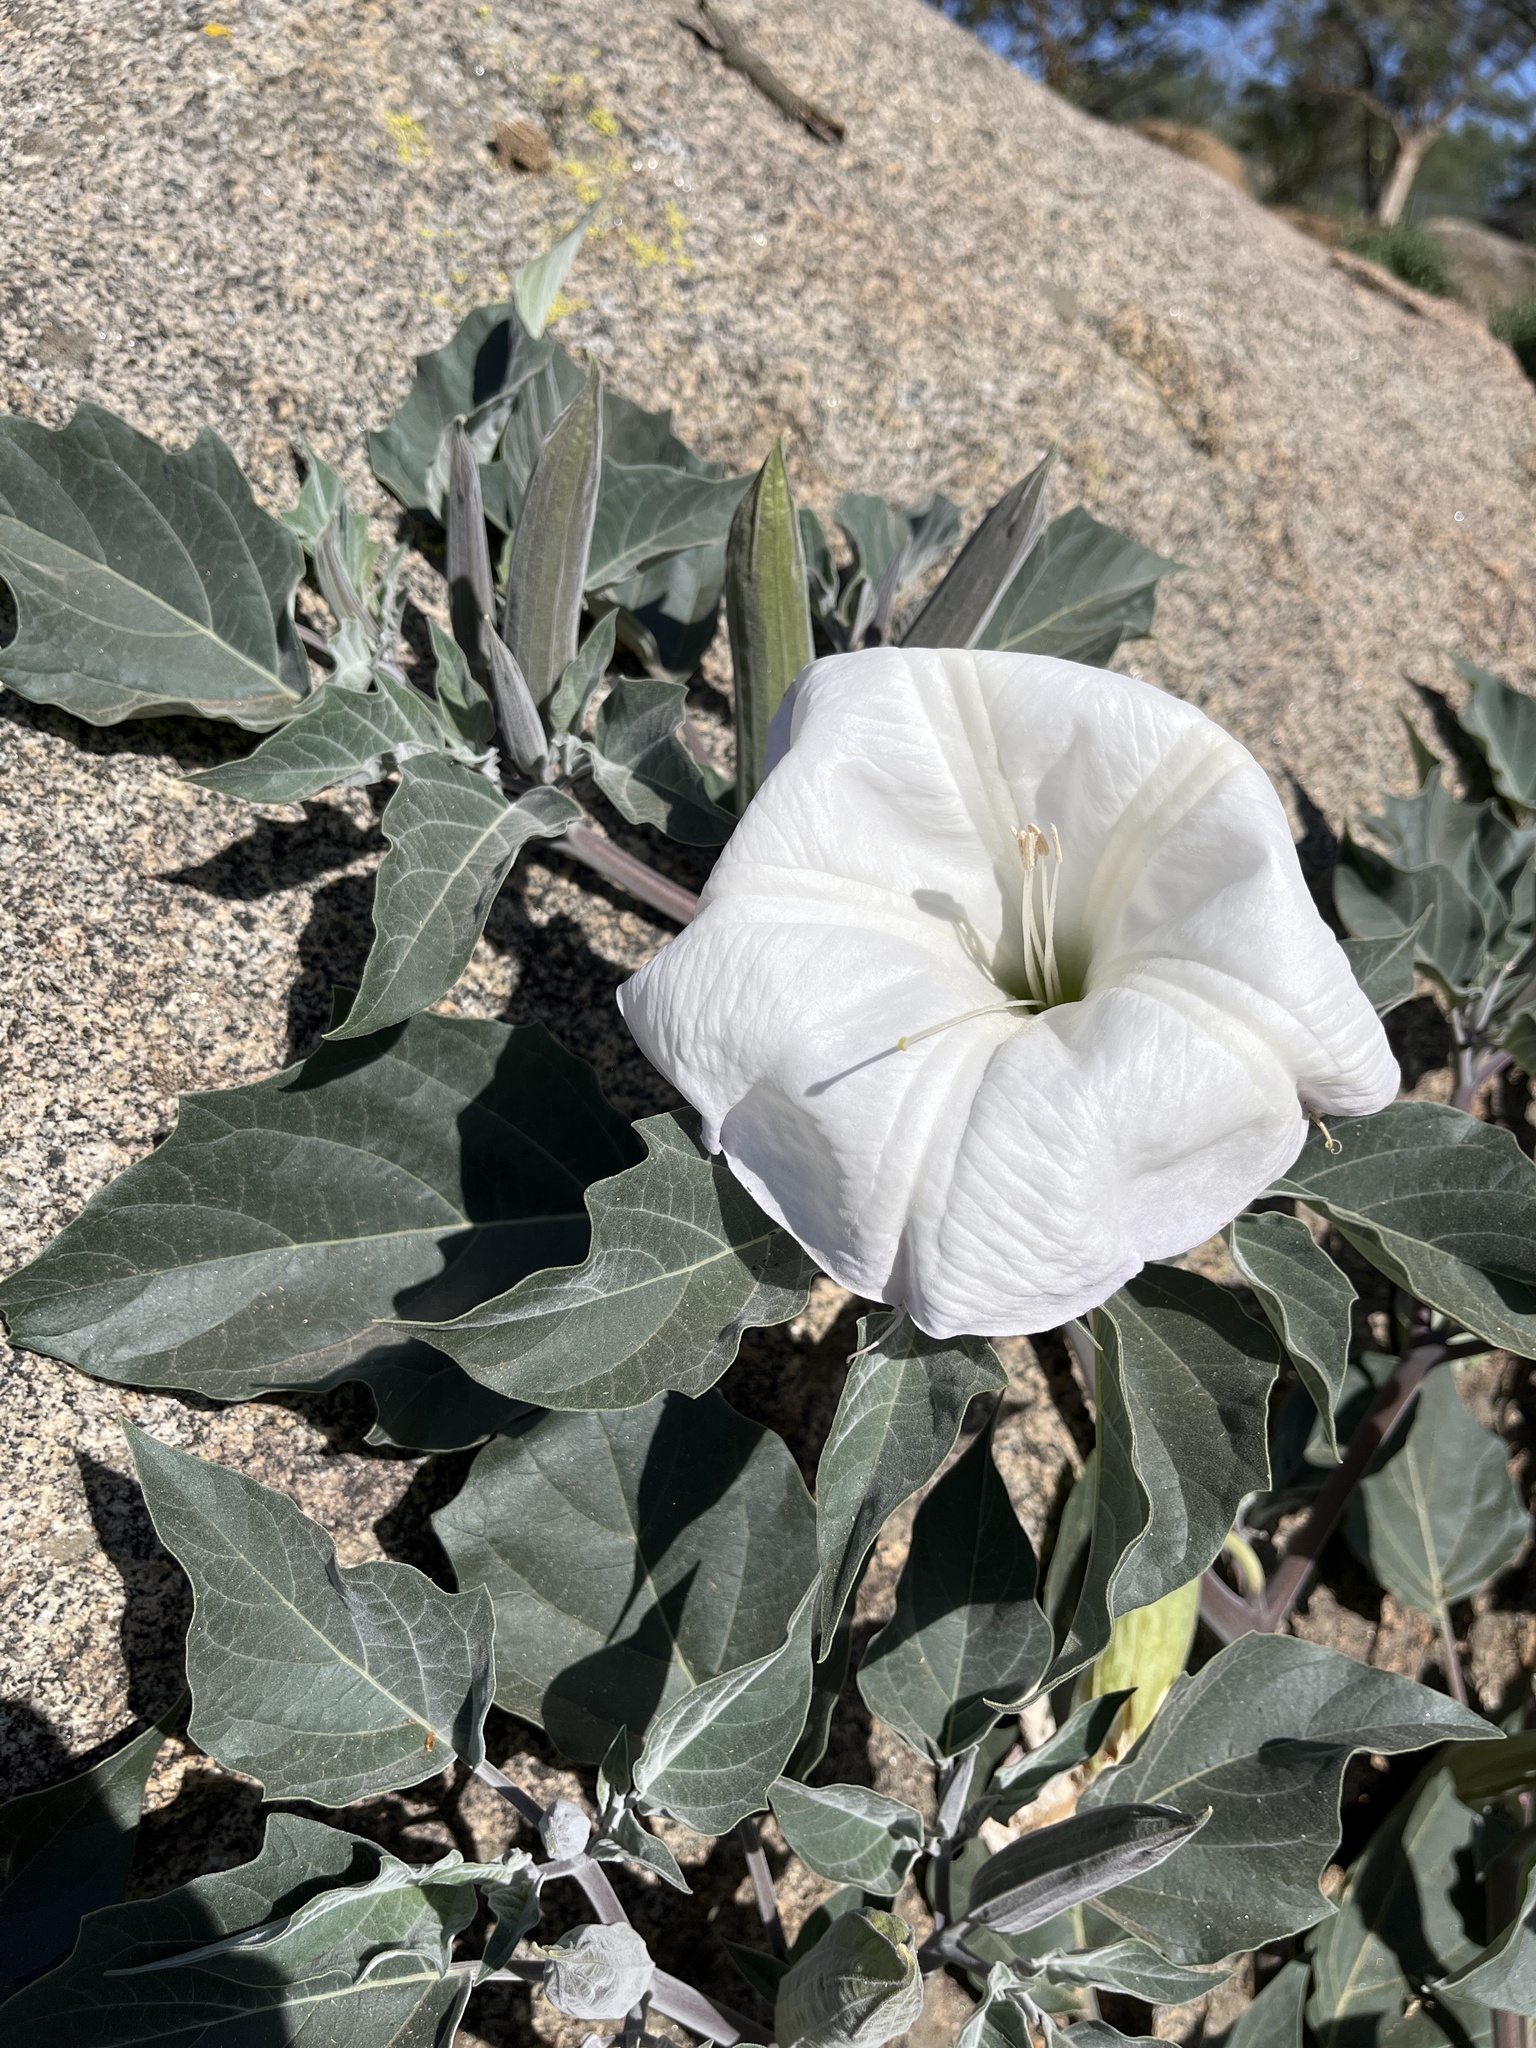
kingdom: Plantae
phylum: Tracheophyta
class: Magnoliopsida
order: Solanales
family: Solanaceae
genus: Datura
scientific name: Datura wrightii
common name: Sacred thorn-apple
